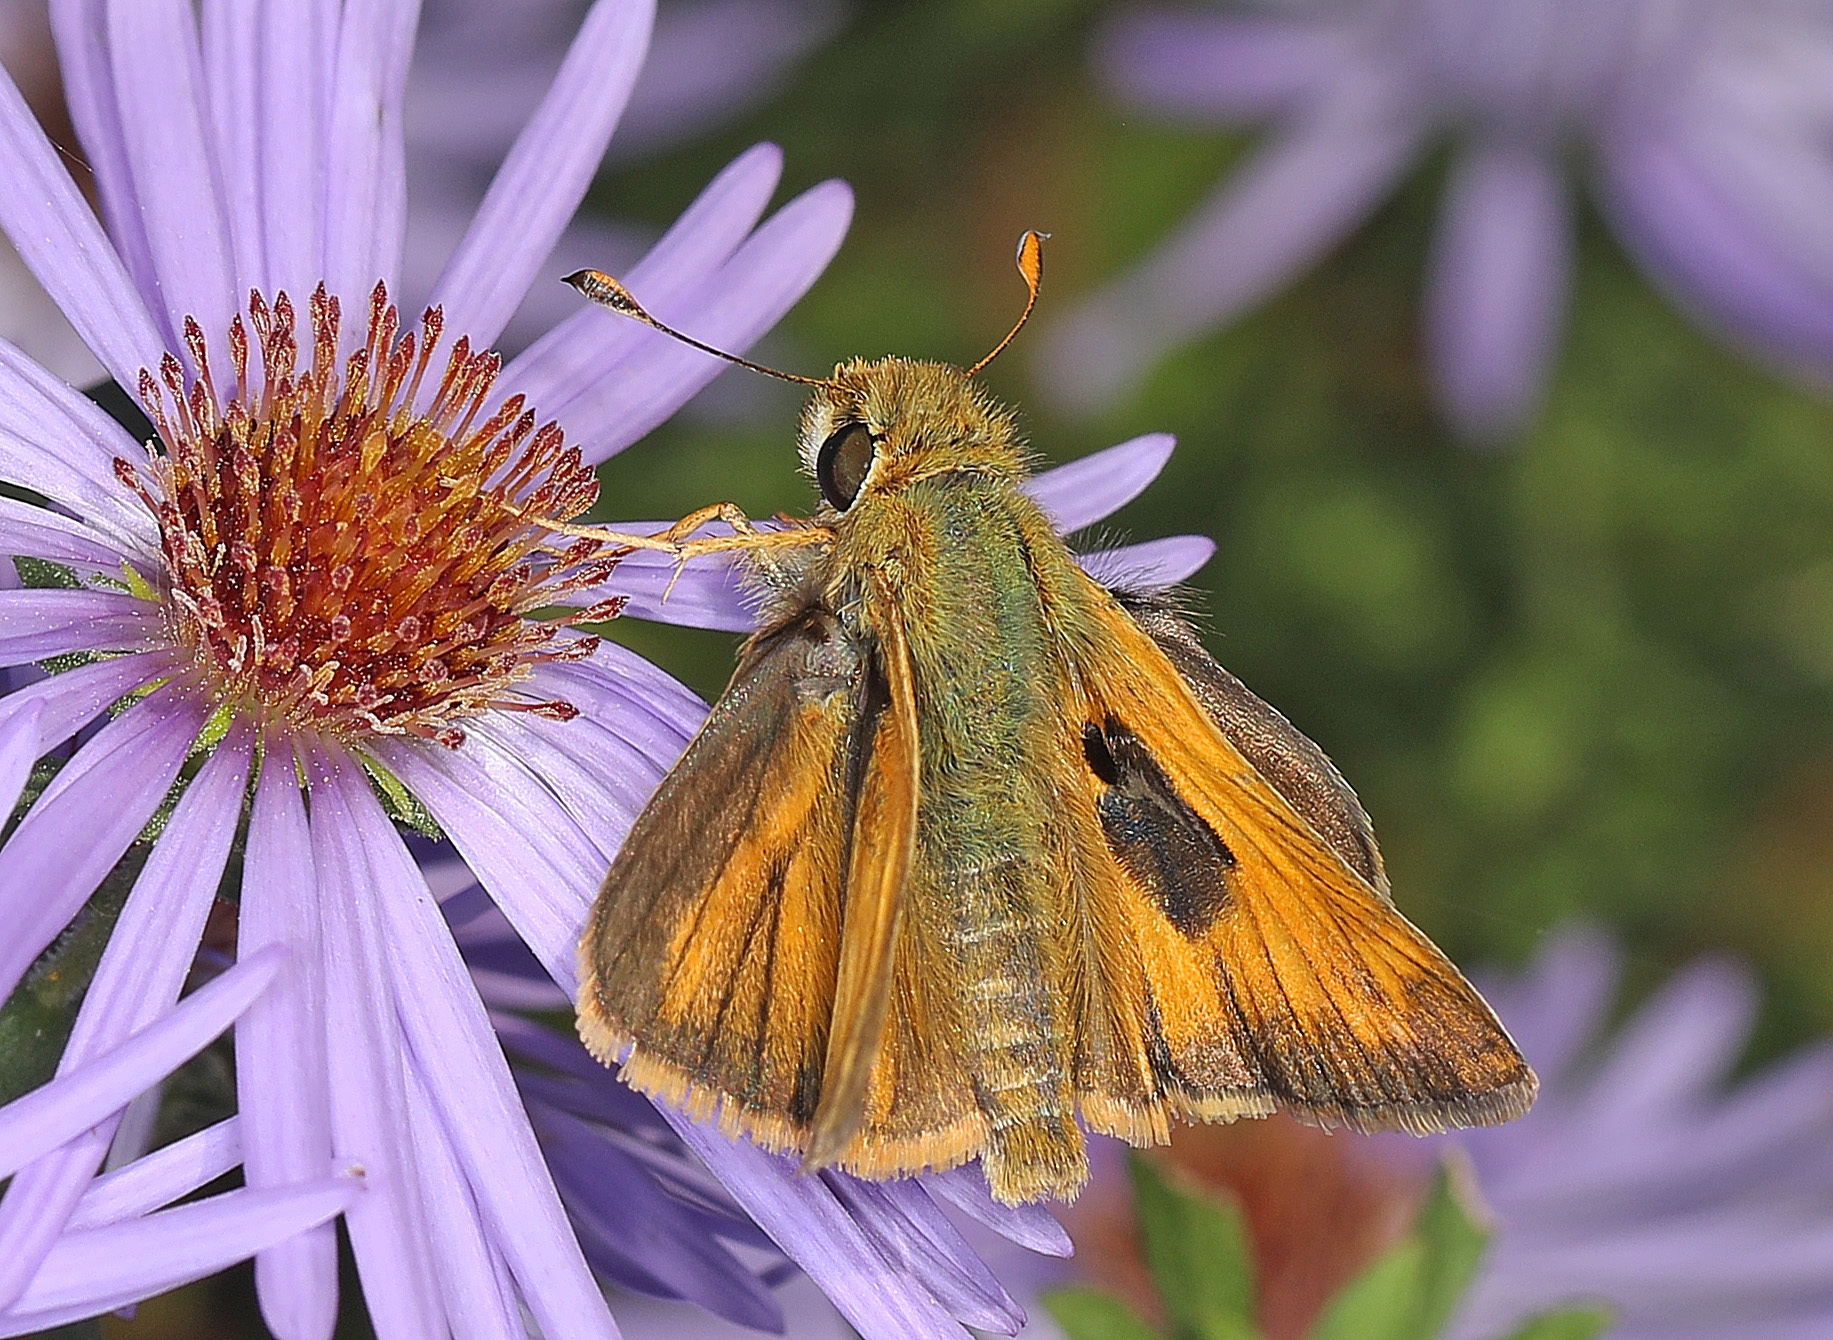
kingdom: Animalia
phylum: Arthropoda
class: Insecta
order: Lepidoptera
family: Hesperiidae
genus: Atalopedes
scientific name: Atalopedes
